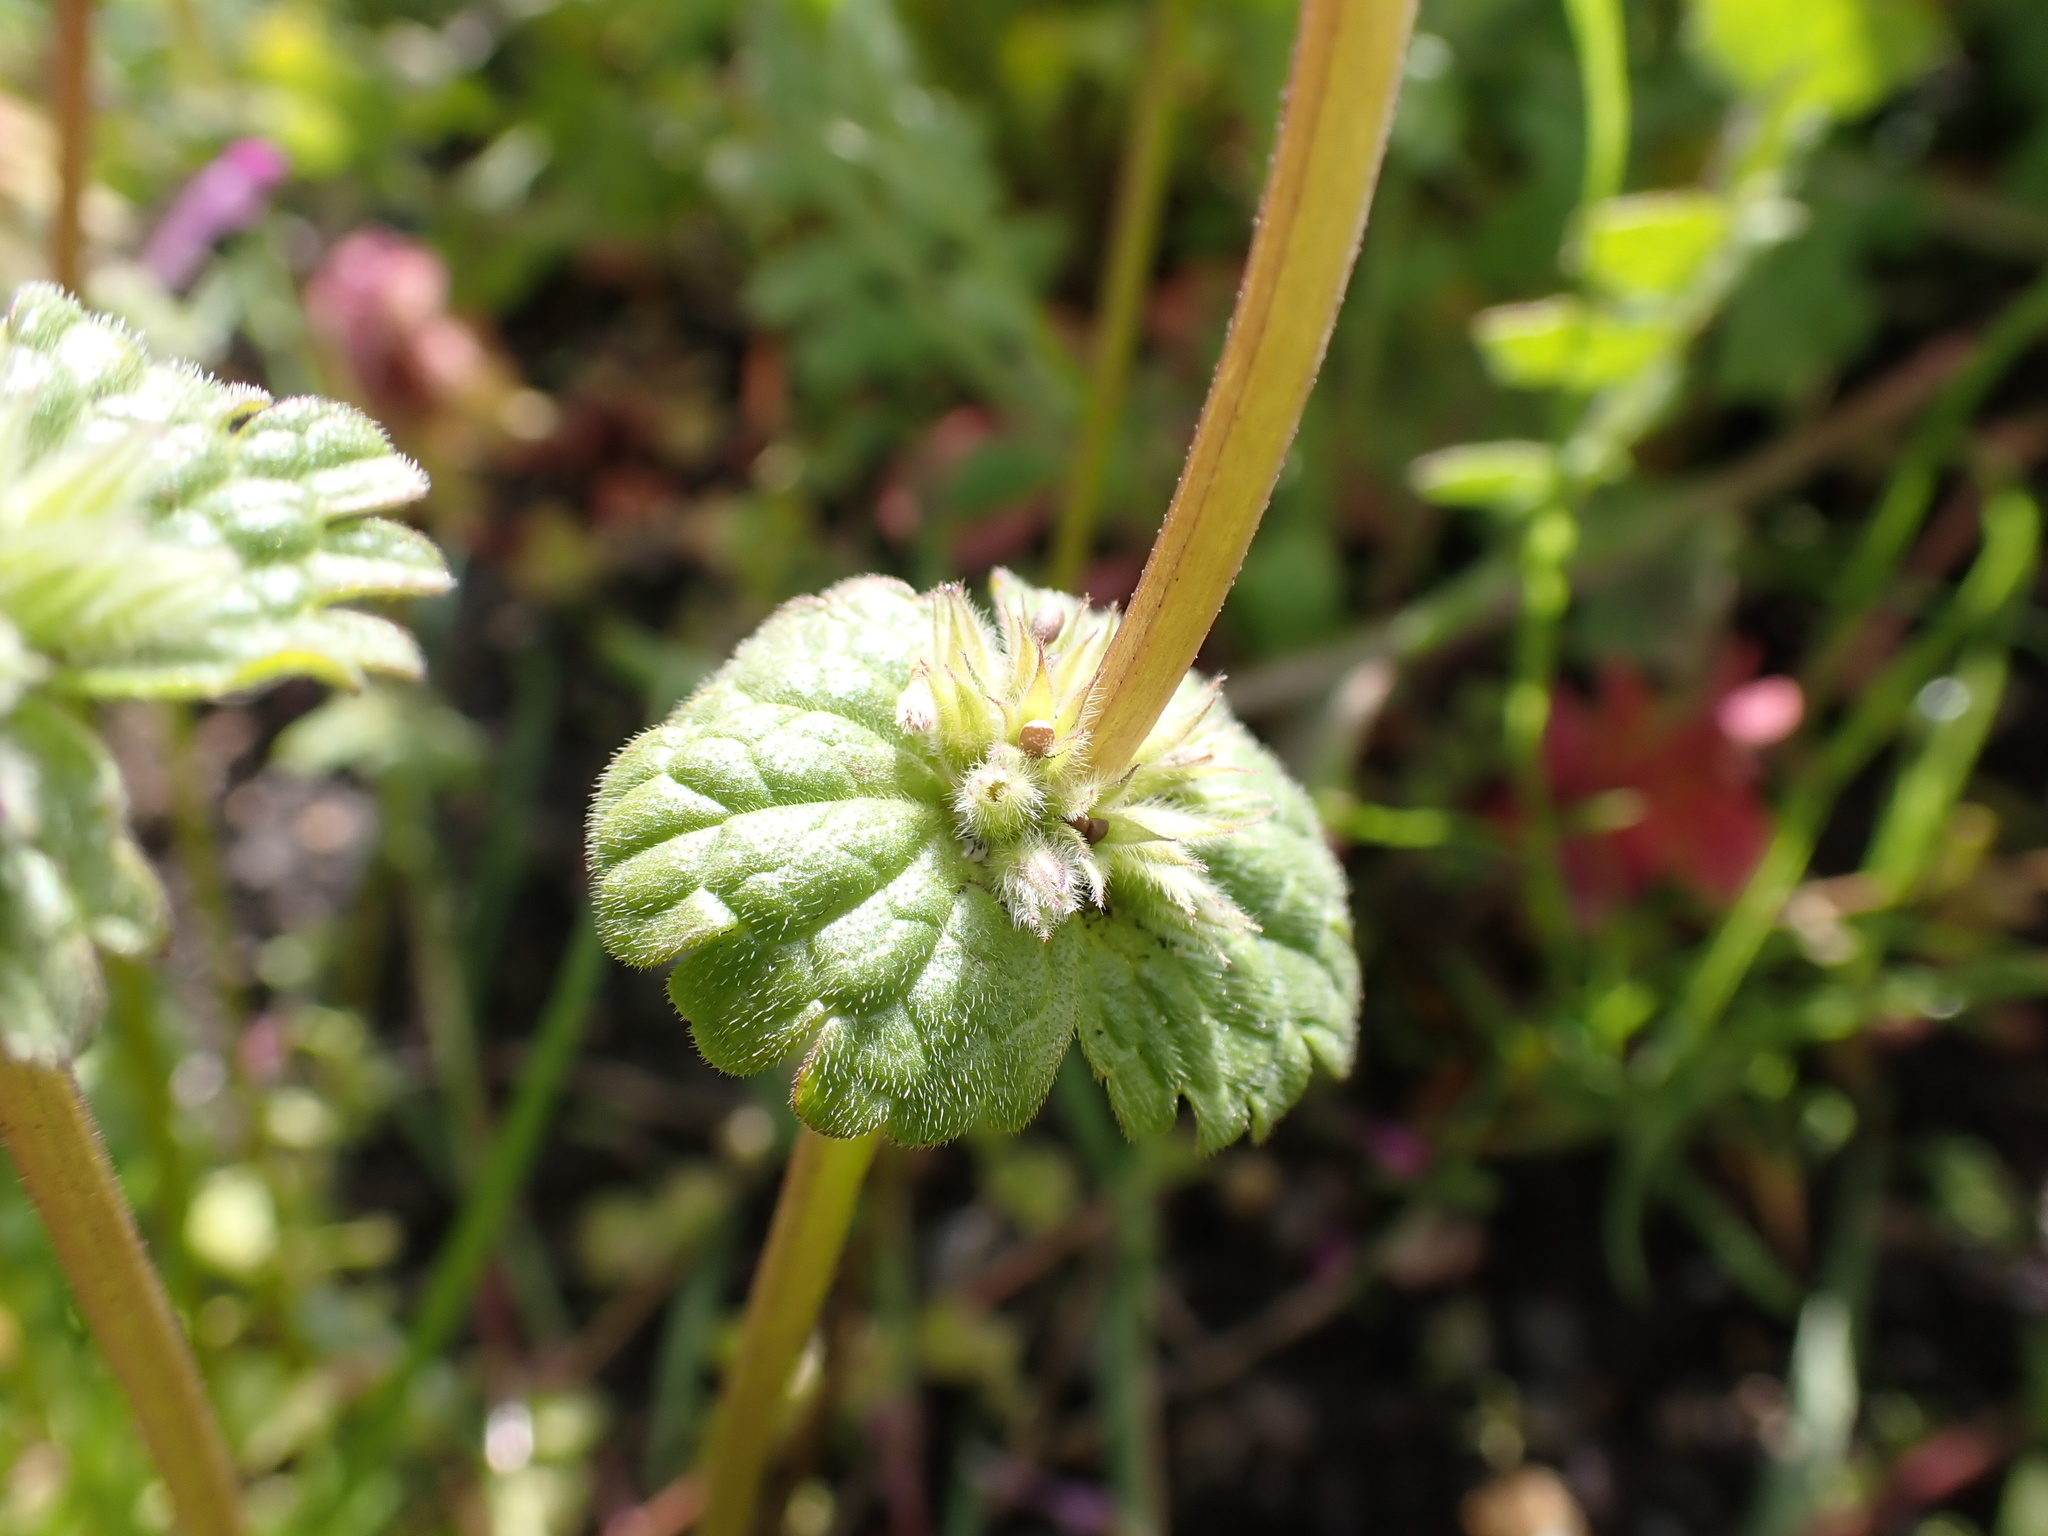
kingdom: Plantae
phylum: Tracheophyta
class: Magnoliopsida
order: Lamiales
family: Lamiaceae
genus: Lamium
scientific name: Lamium amplexicaule
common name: Henbit dead-nettle
